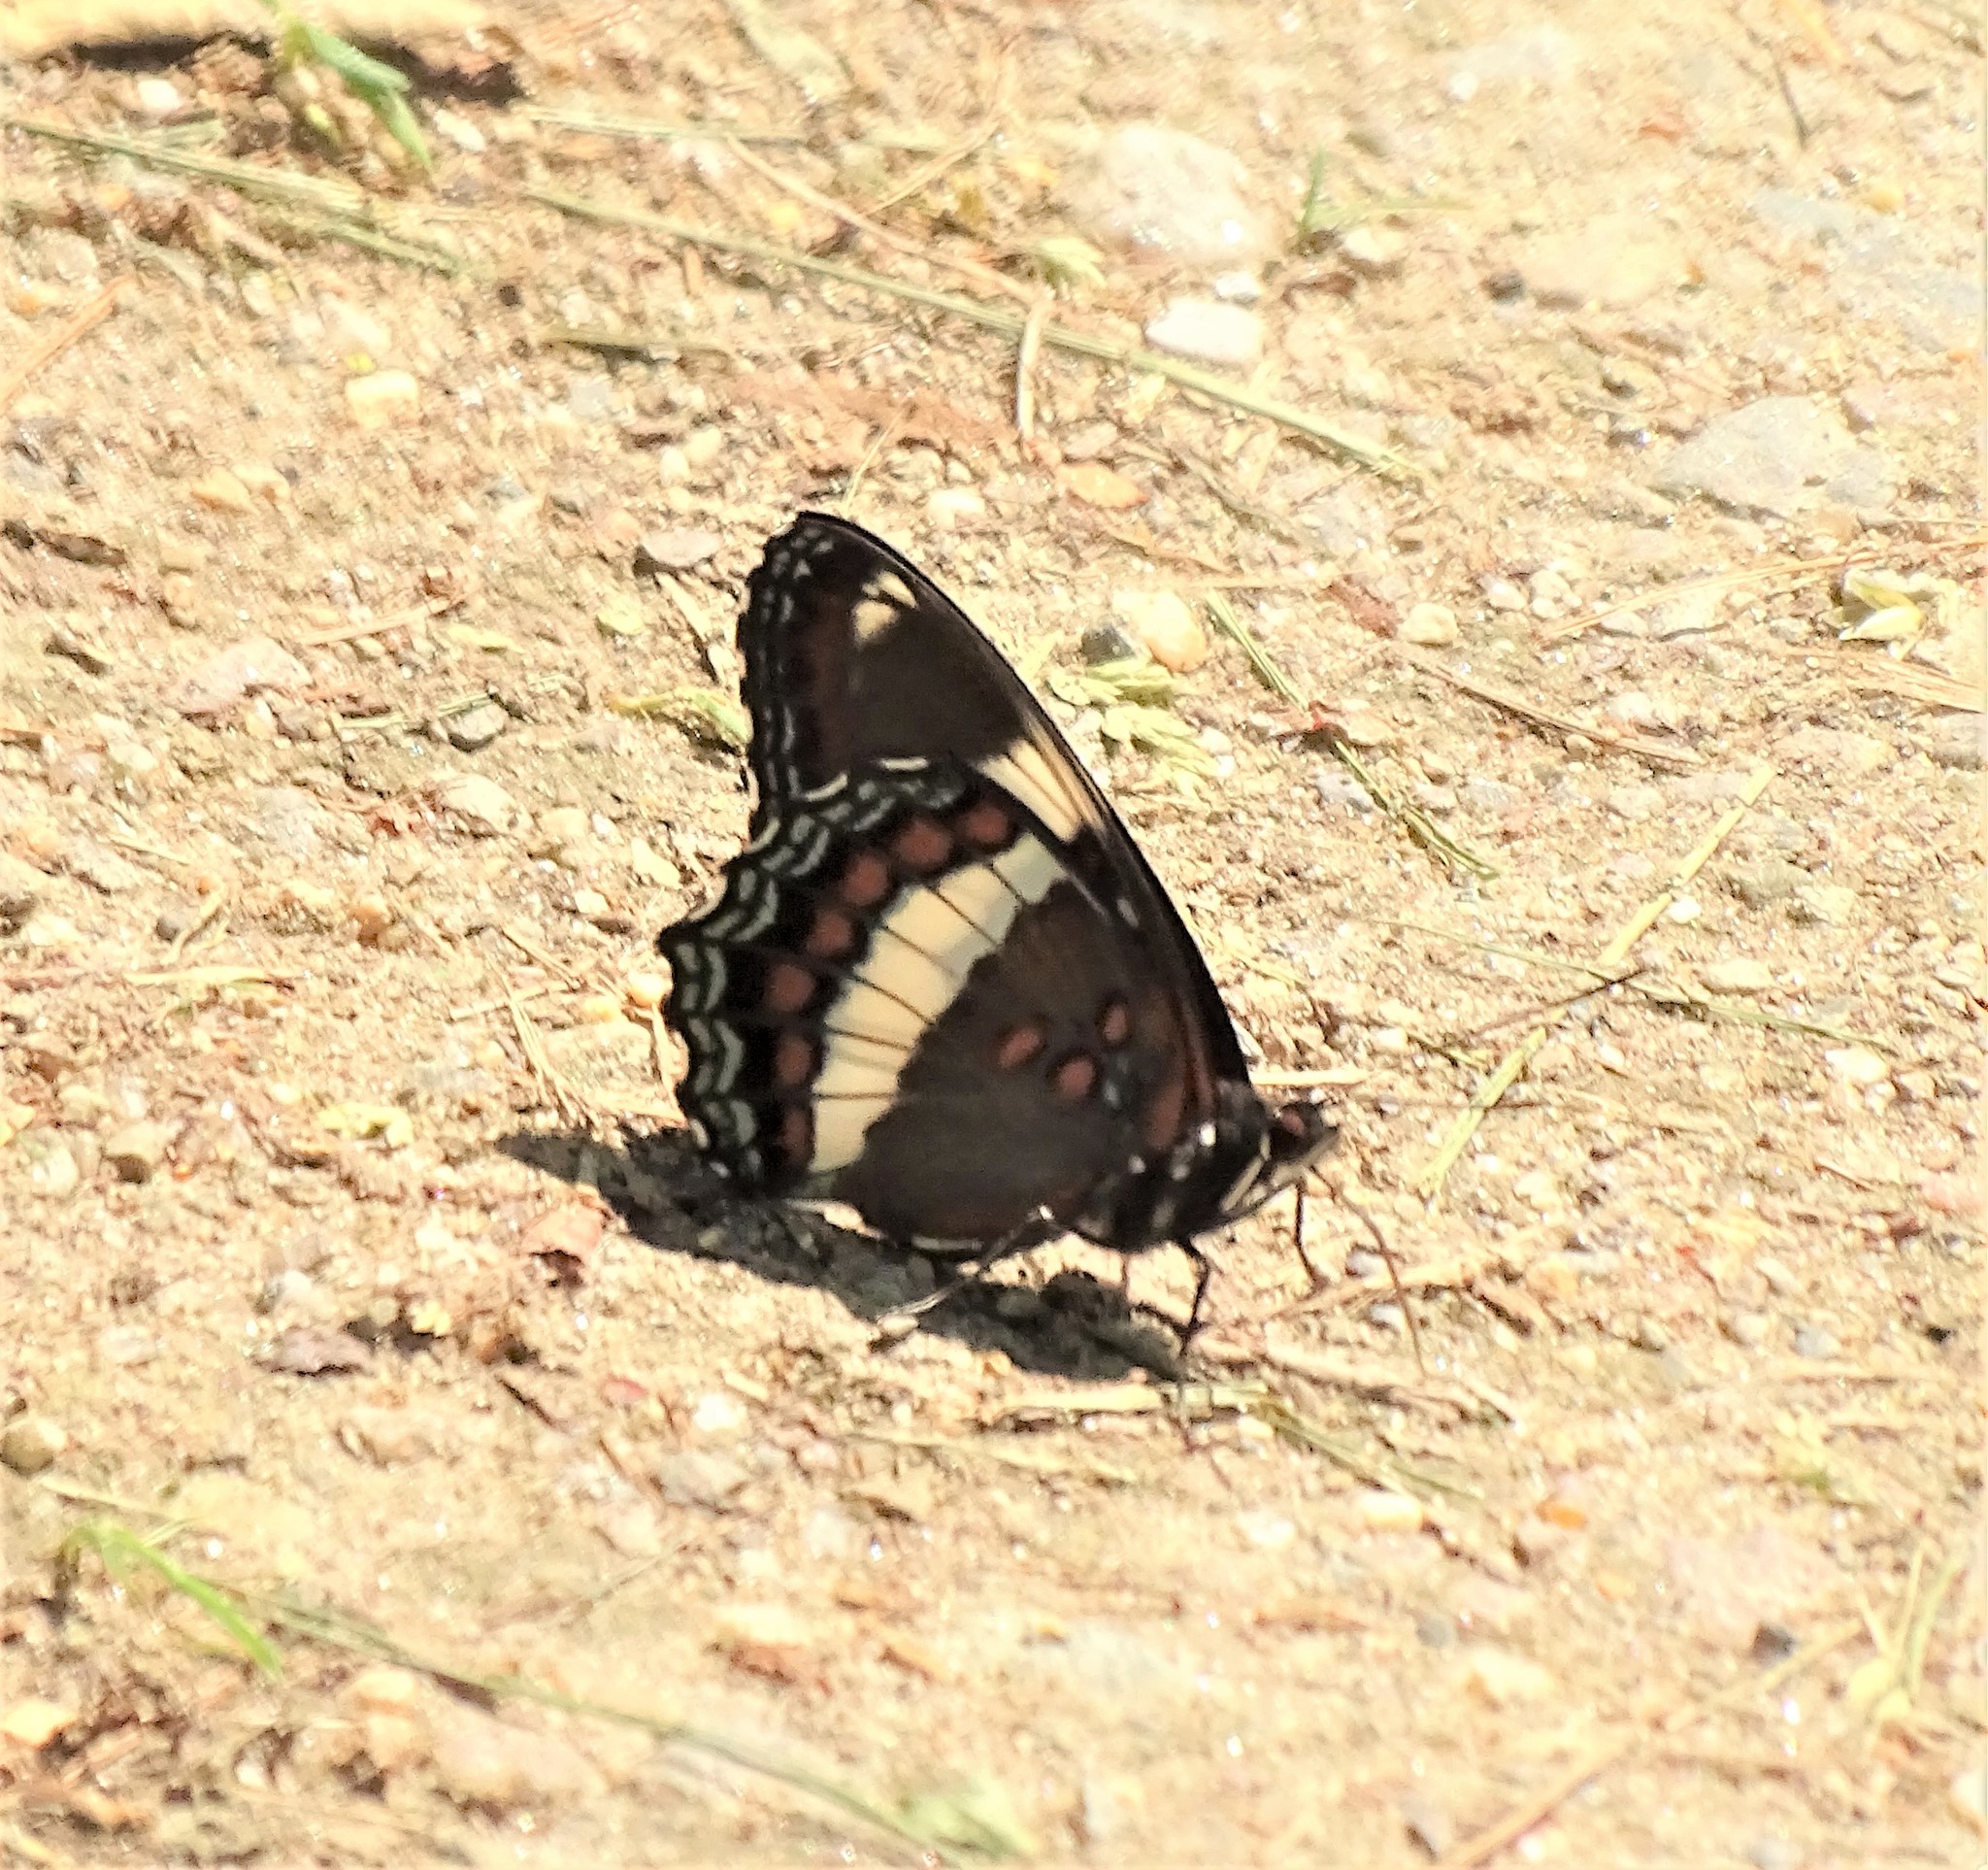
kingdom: Animalia
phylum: Arthropoda
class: Insecta
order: Lepidoptera
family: Nymphalidae
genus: Limenitis
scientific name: Limenitis arthemis
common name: Red-spotted admiral
